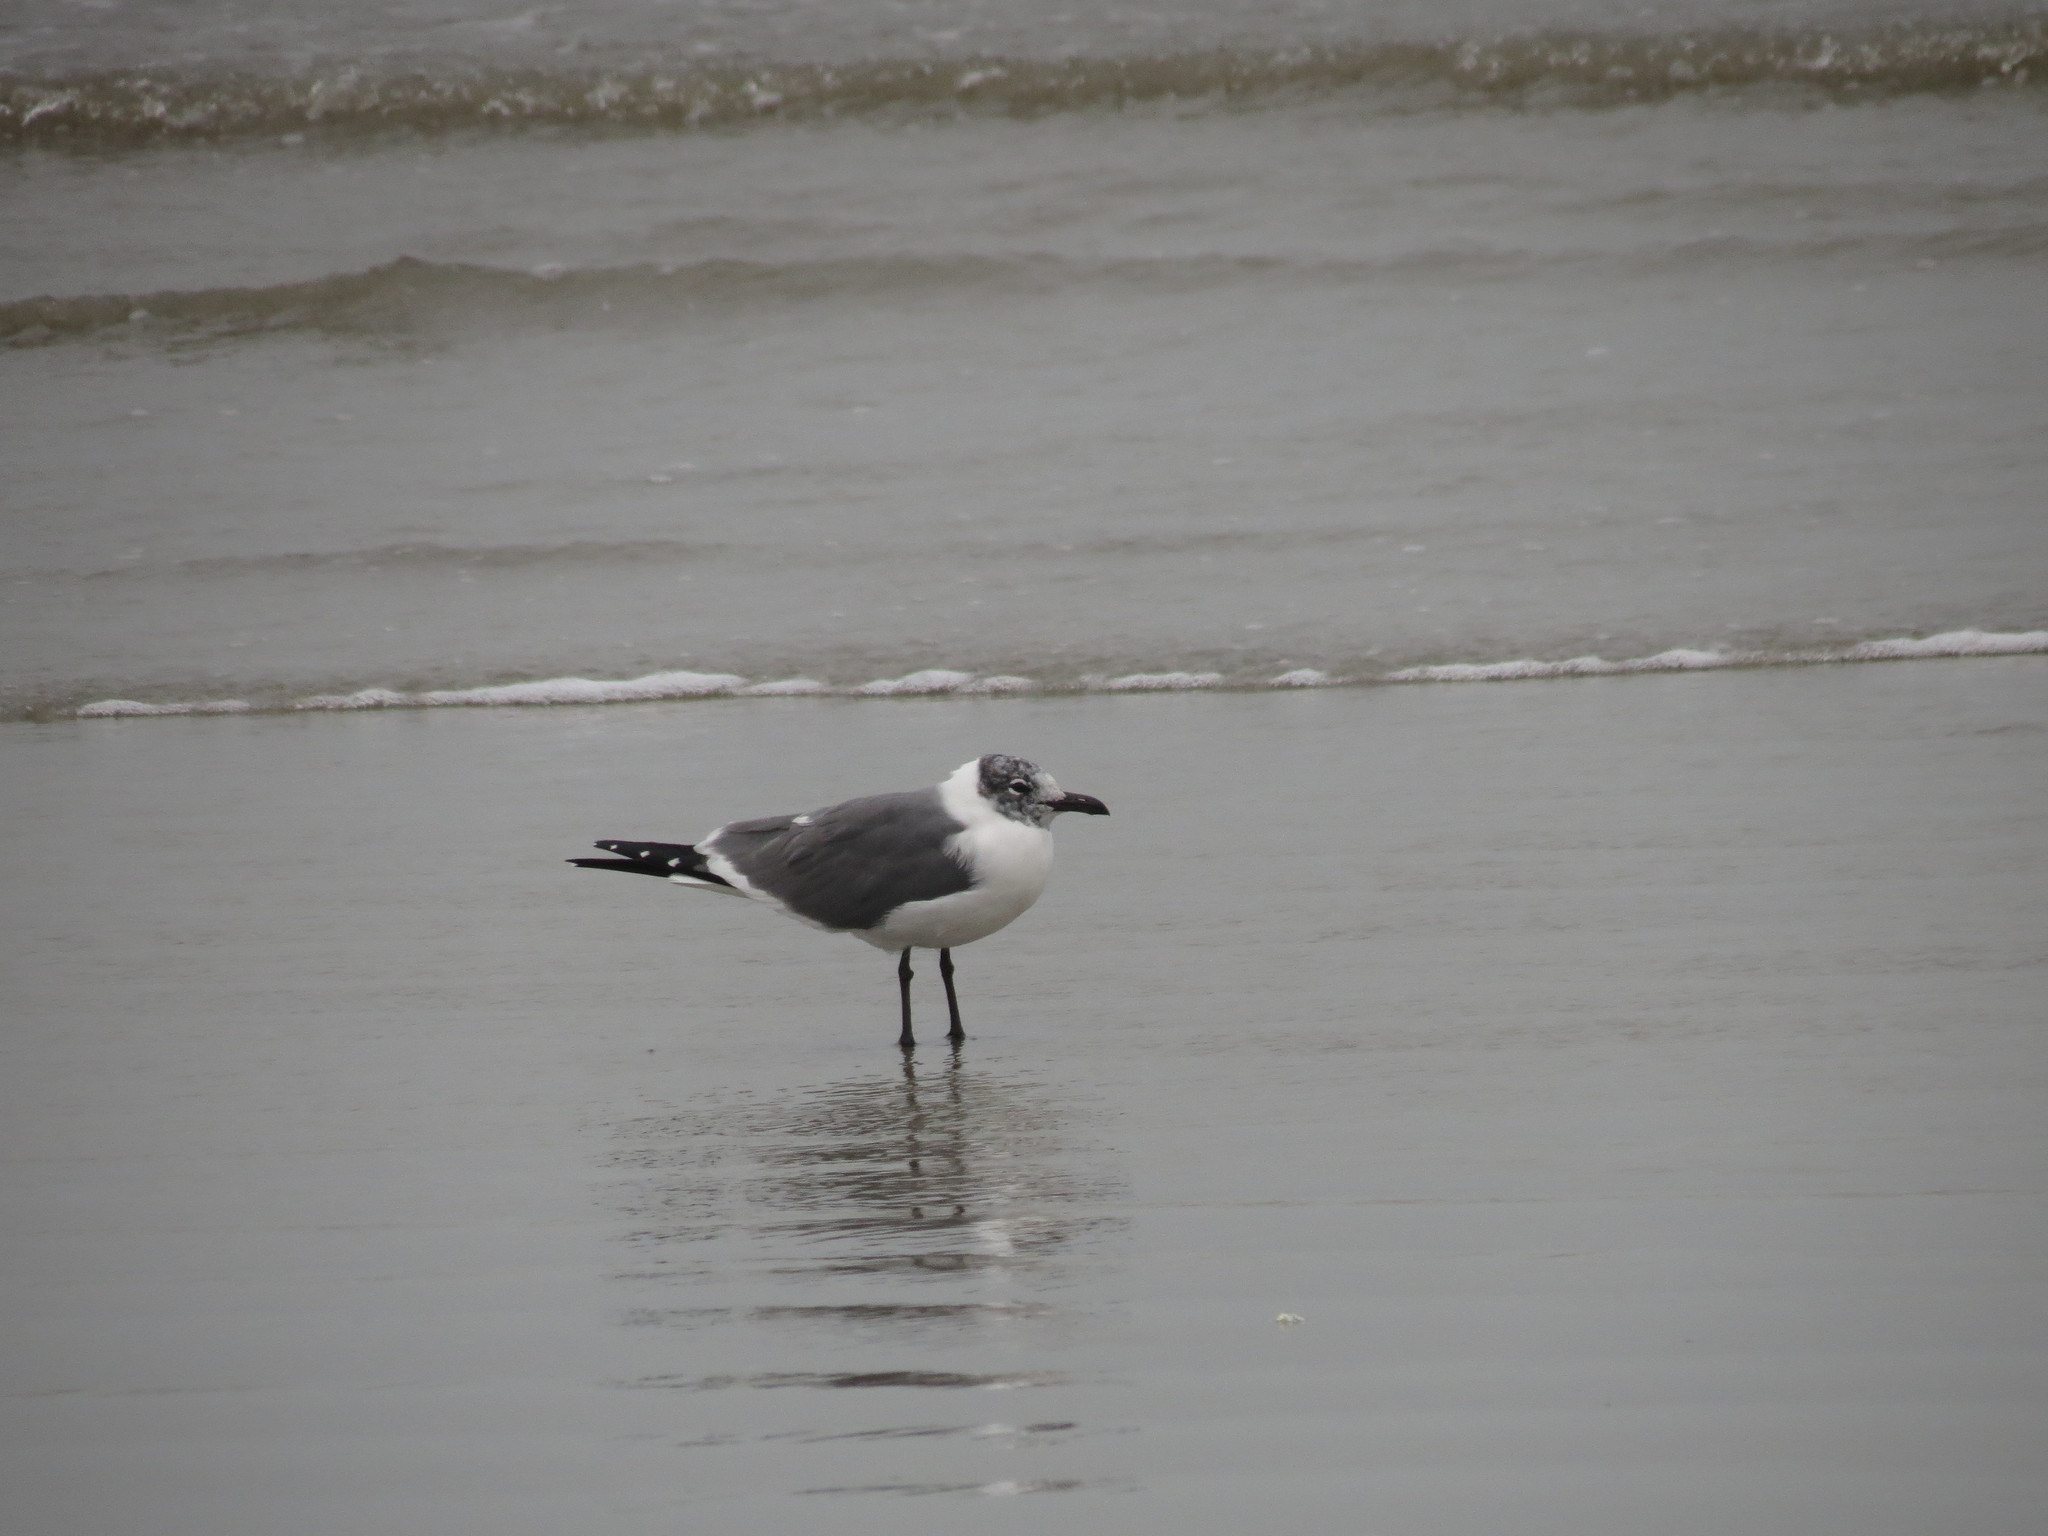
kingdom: Animalia
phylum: Chordata
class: Aves
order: Charadriiformes
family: Laridae
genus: Leucophaeus
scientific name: Leucophaeus atricilla
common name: Laughing gull
